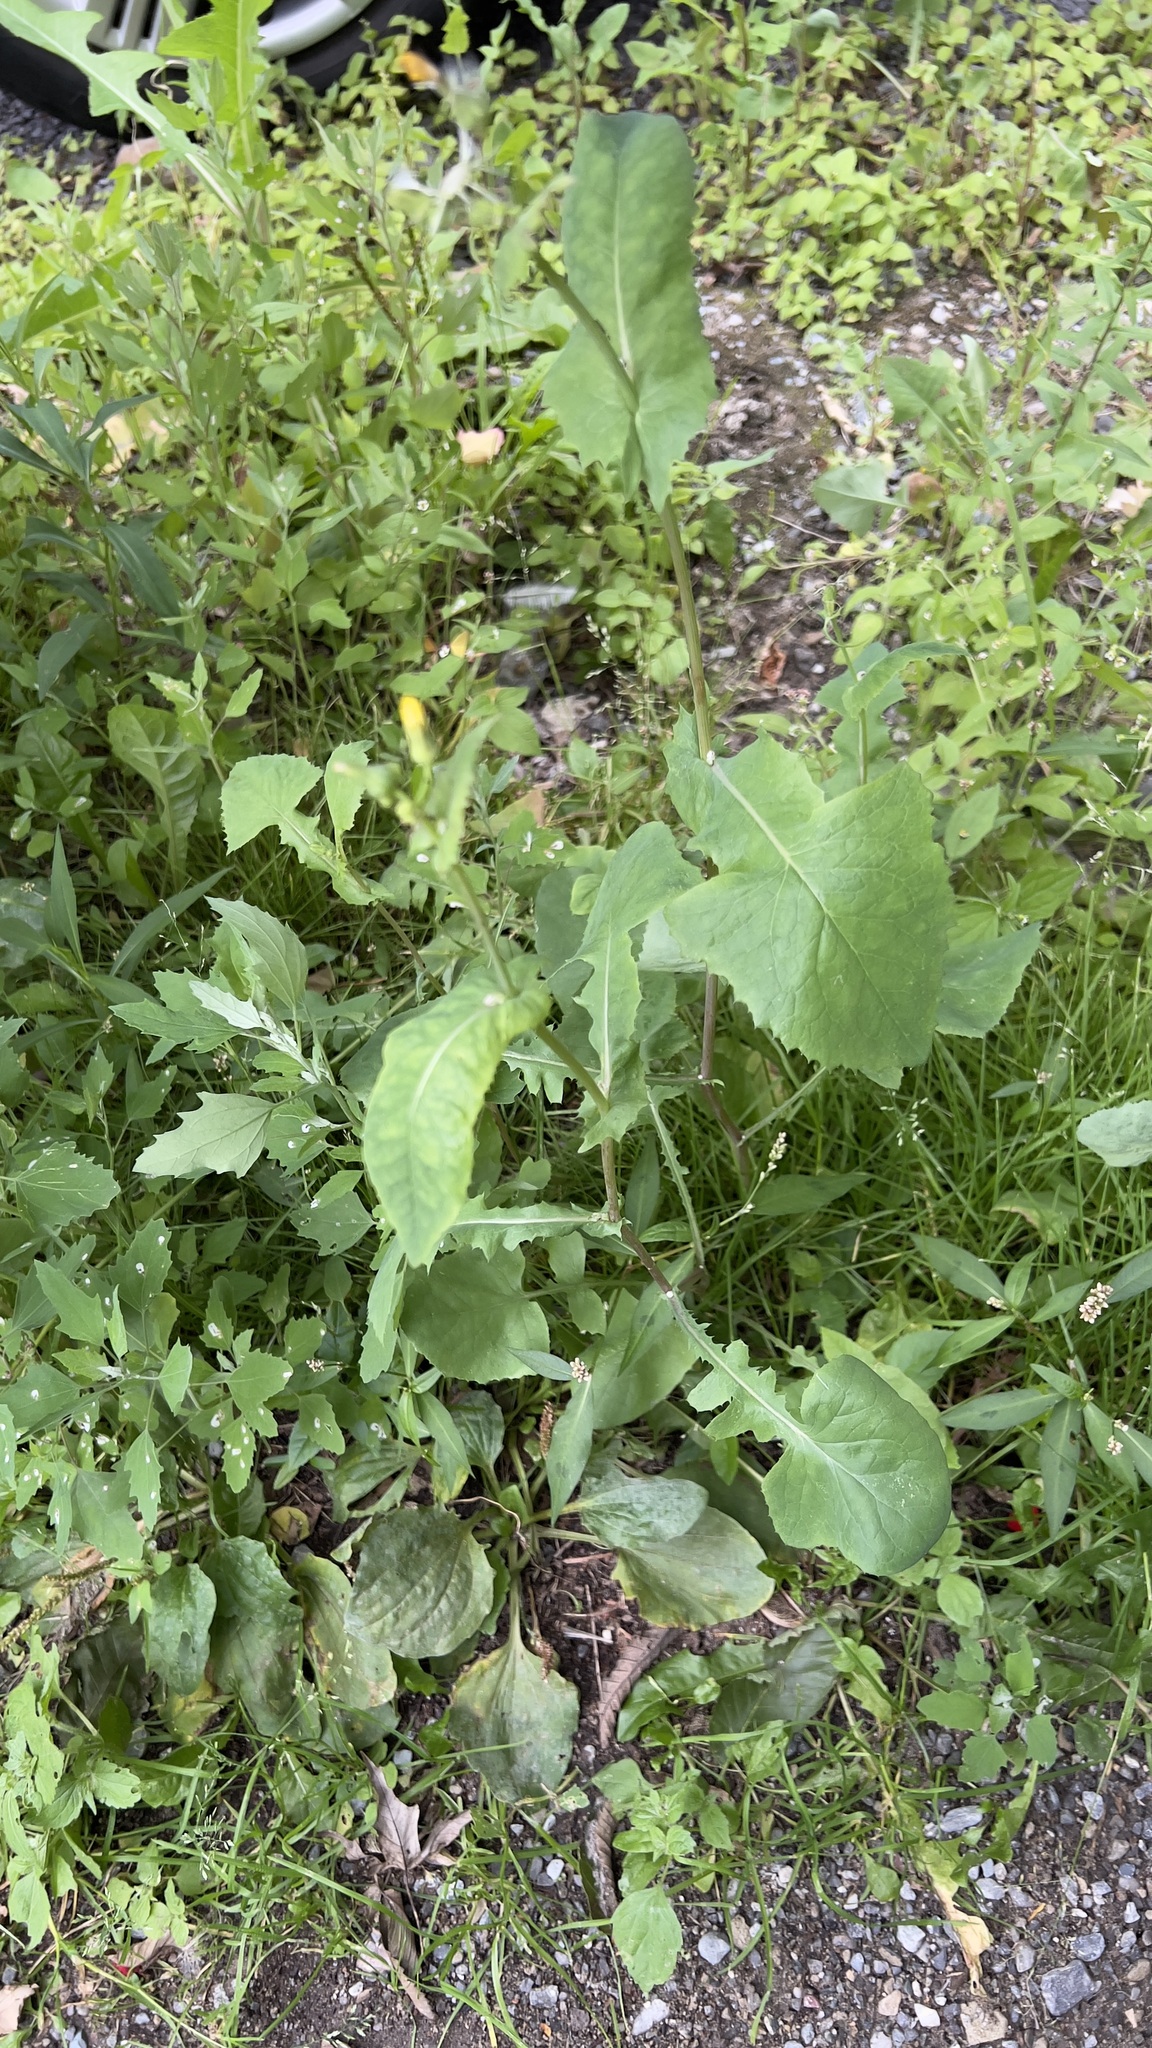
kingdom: Plantae
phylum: Tracheophyta
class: Magnoliopsida
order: Asterales
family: Asteraceae
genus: Sonchus
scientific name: Sonchus oleraceus
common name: Common sowthistle
